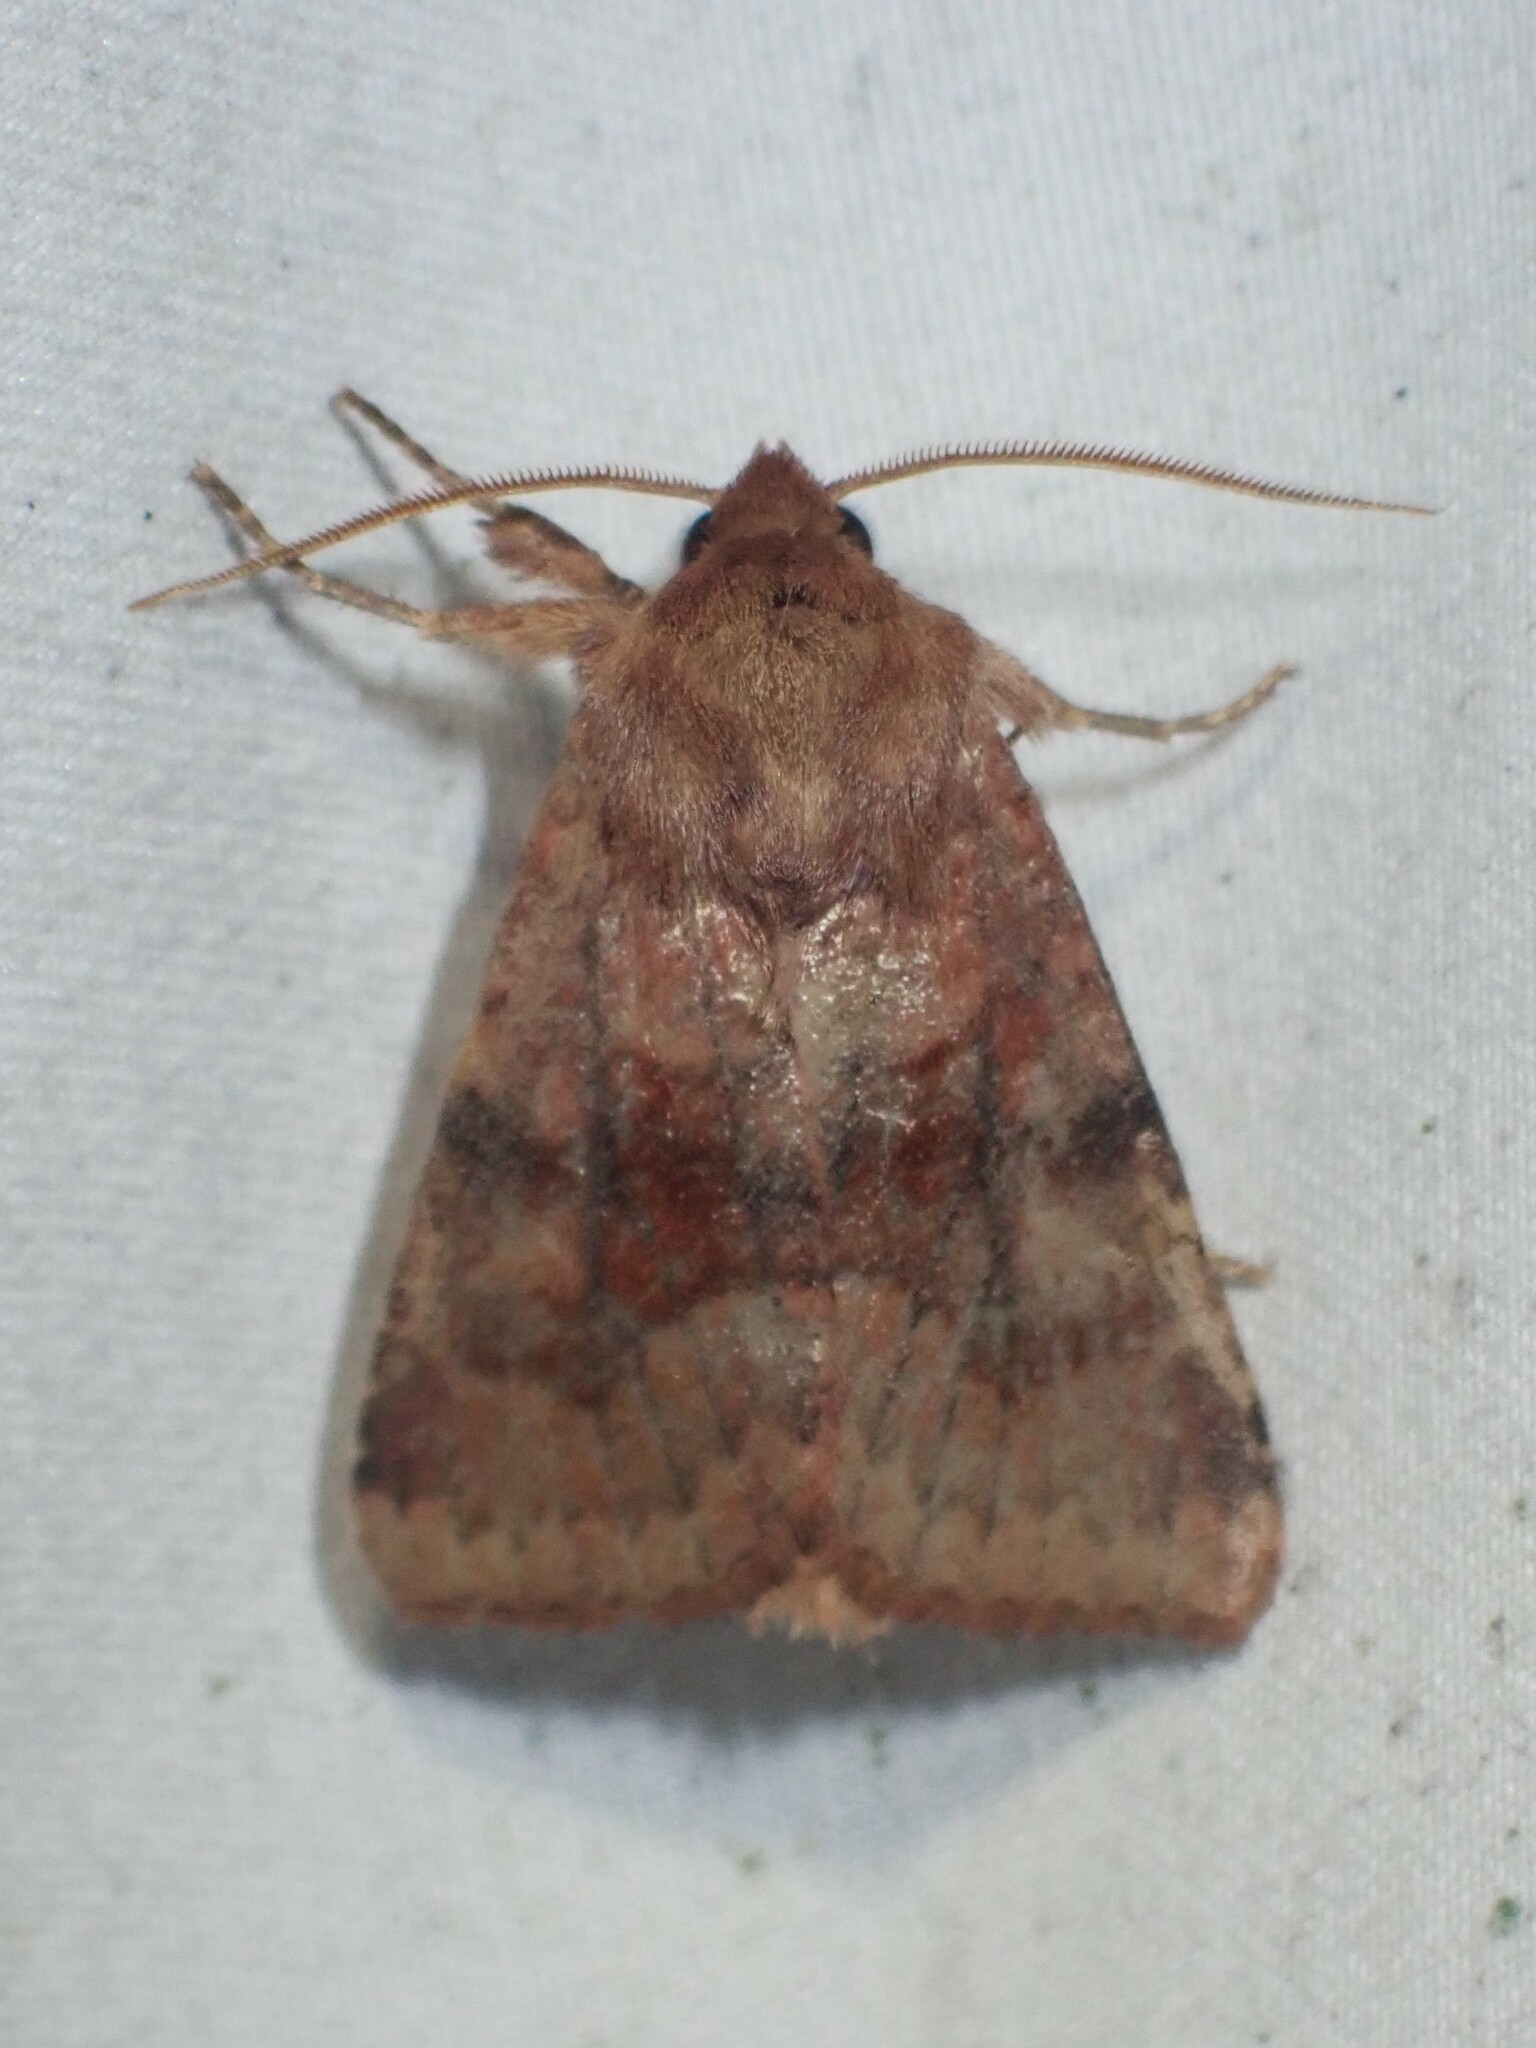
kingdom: Animalia
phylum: Arthropoda
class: Insecta
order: Lepidoptera
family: Noctuidae
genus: Nephelodes
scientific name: Nephelodes minians
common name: Bronzed cutworm
